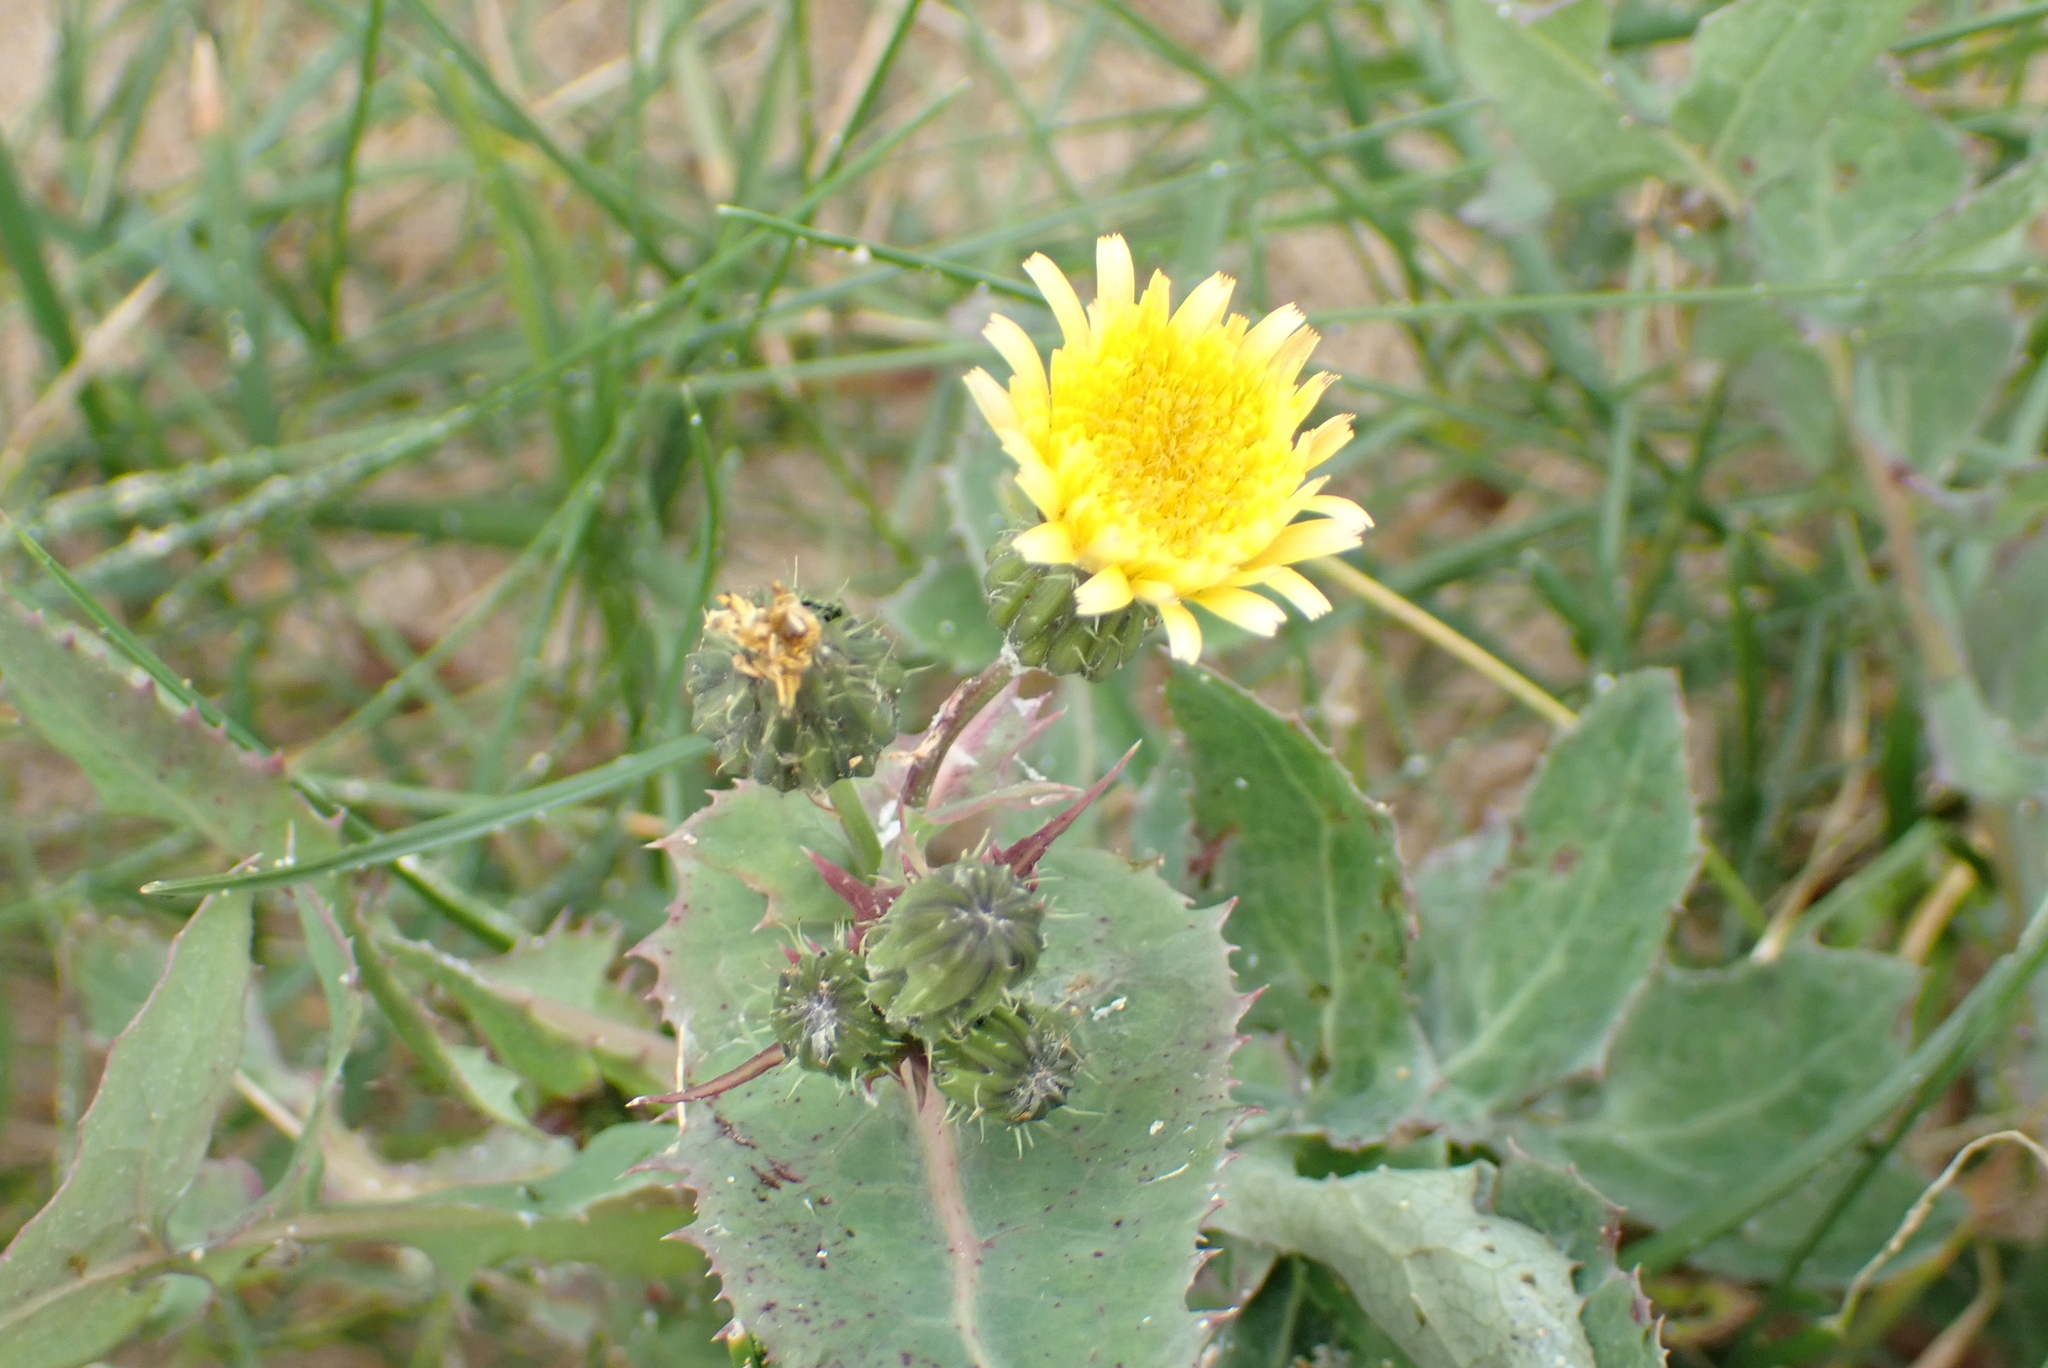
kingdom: Plantae
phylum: Tracheophyta
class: Magnoliopsida
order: Asterales
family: Asteraceae
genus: Sonchus
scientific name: Sonchus oleraceus
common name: Common sowthistle
